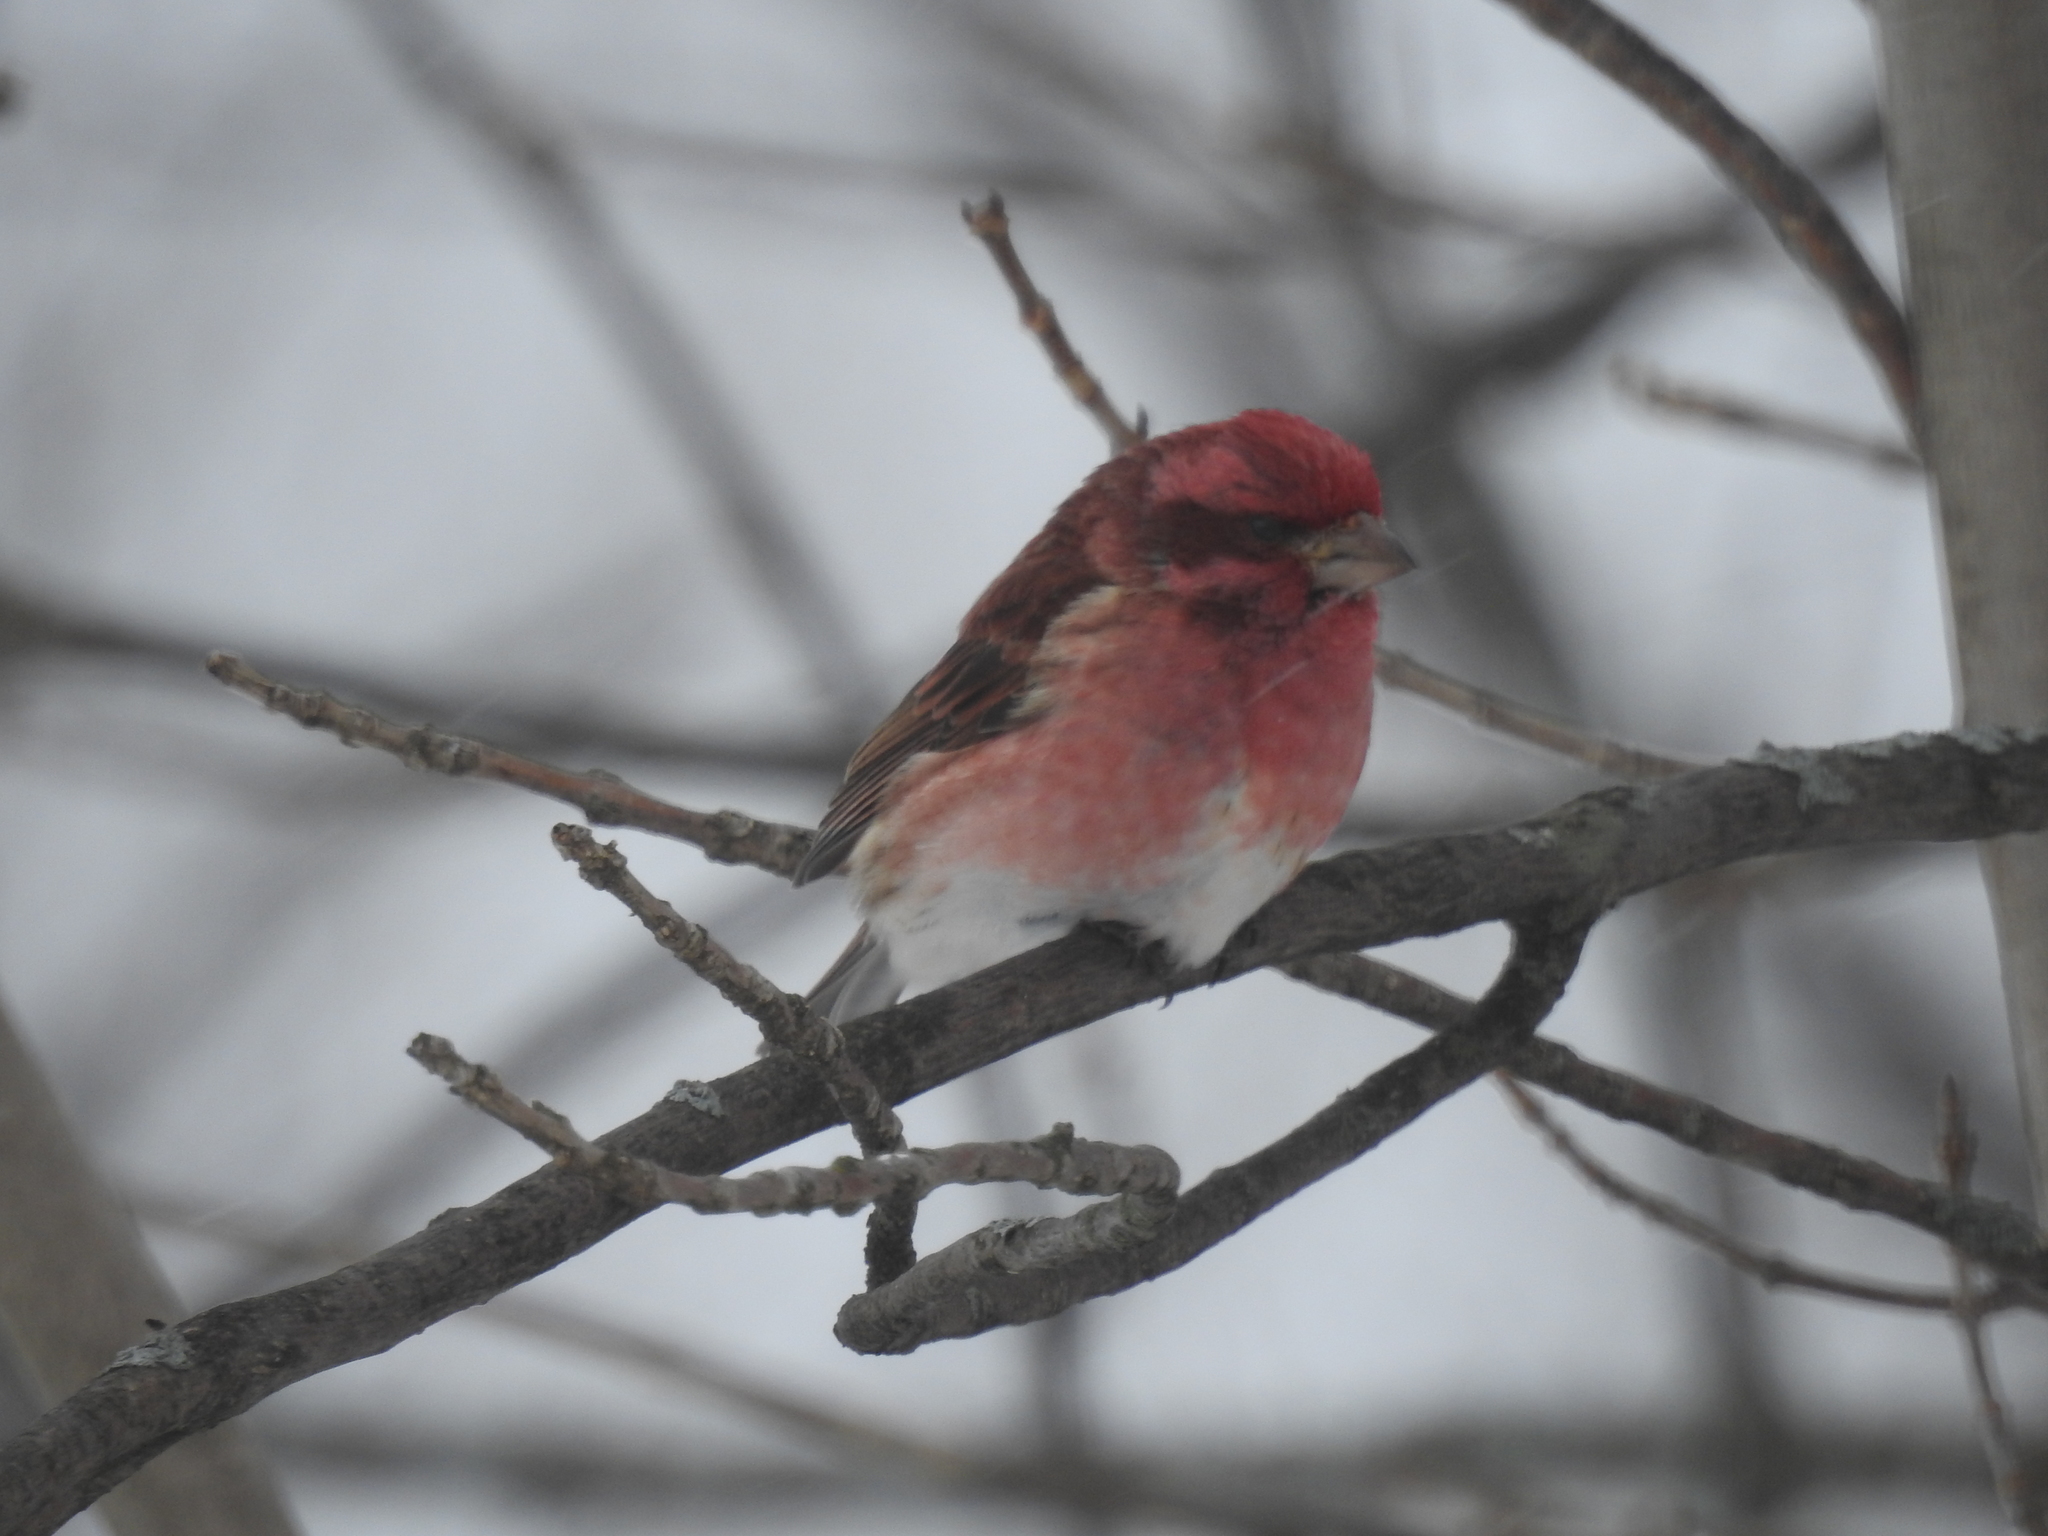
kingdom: Animalia
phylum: Chordata
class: Aves
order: Passeriformes
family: Fringillidae
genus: Haemorhous
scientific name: Haemorhous purpureus
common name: Purple finch
